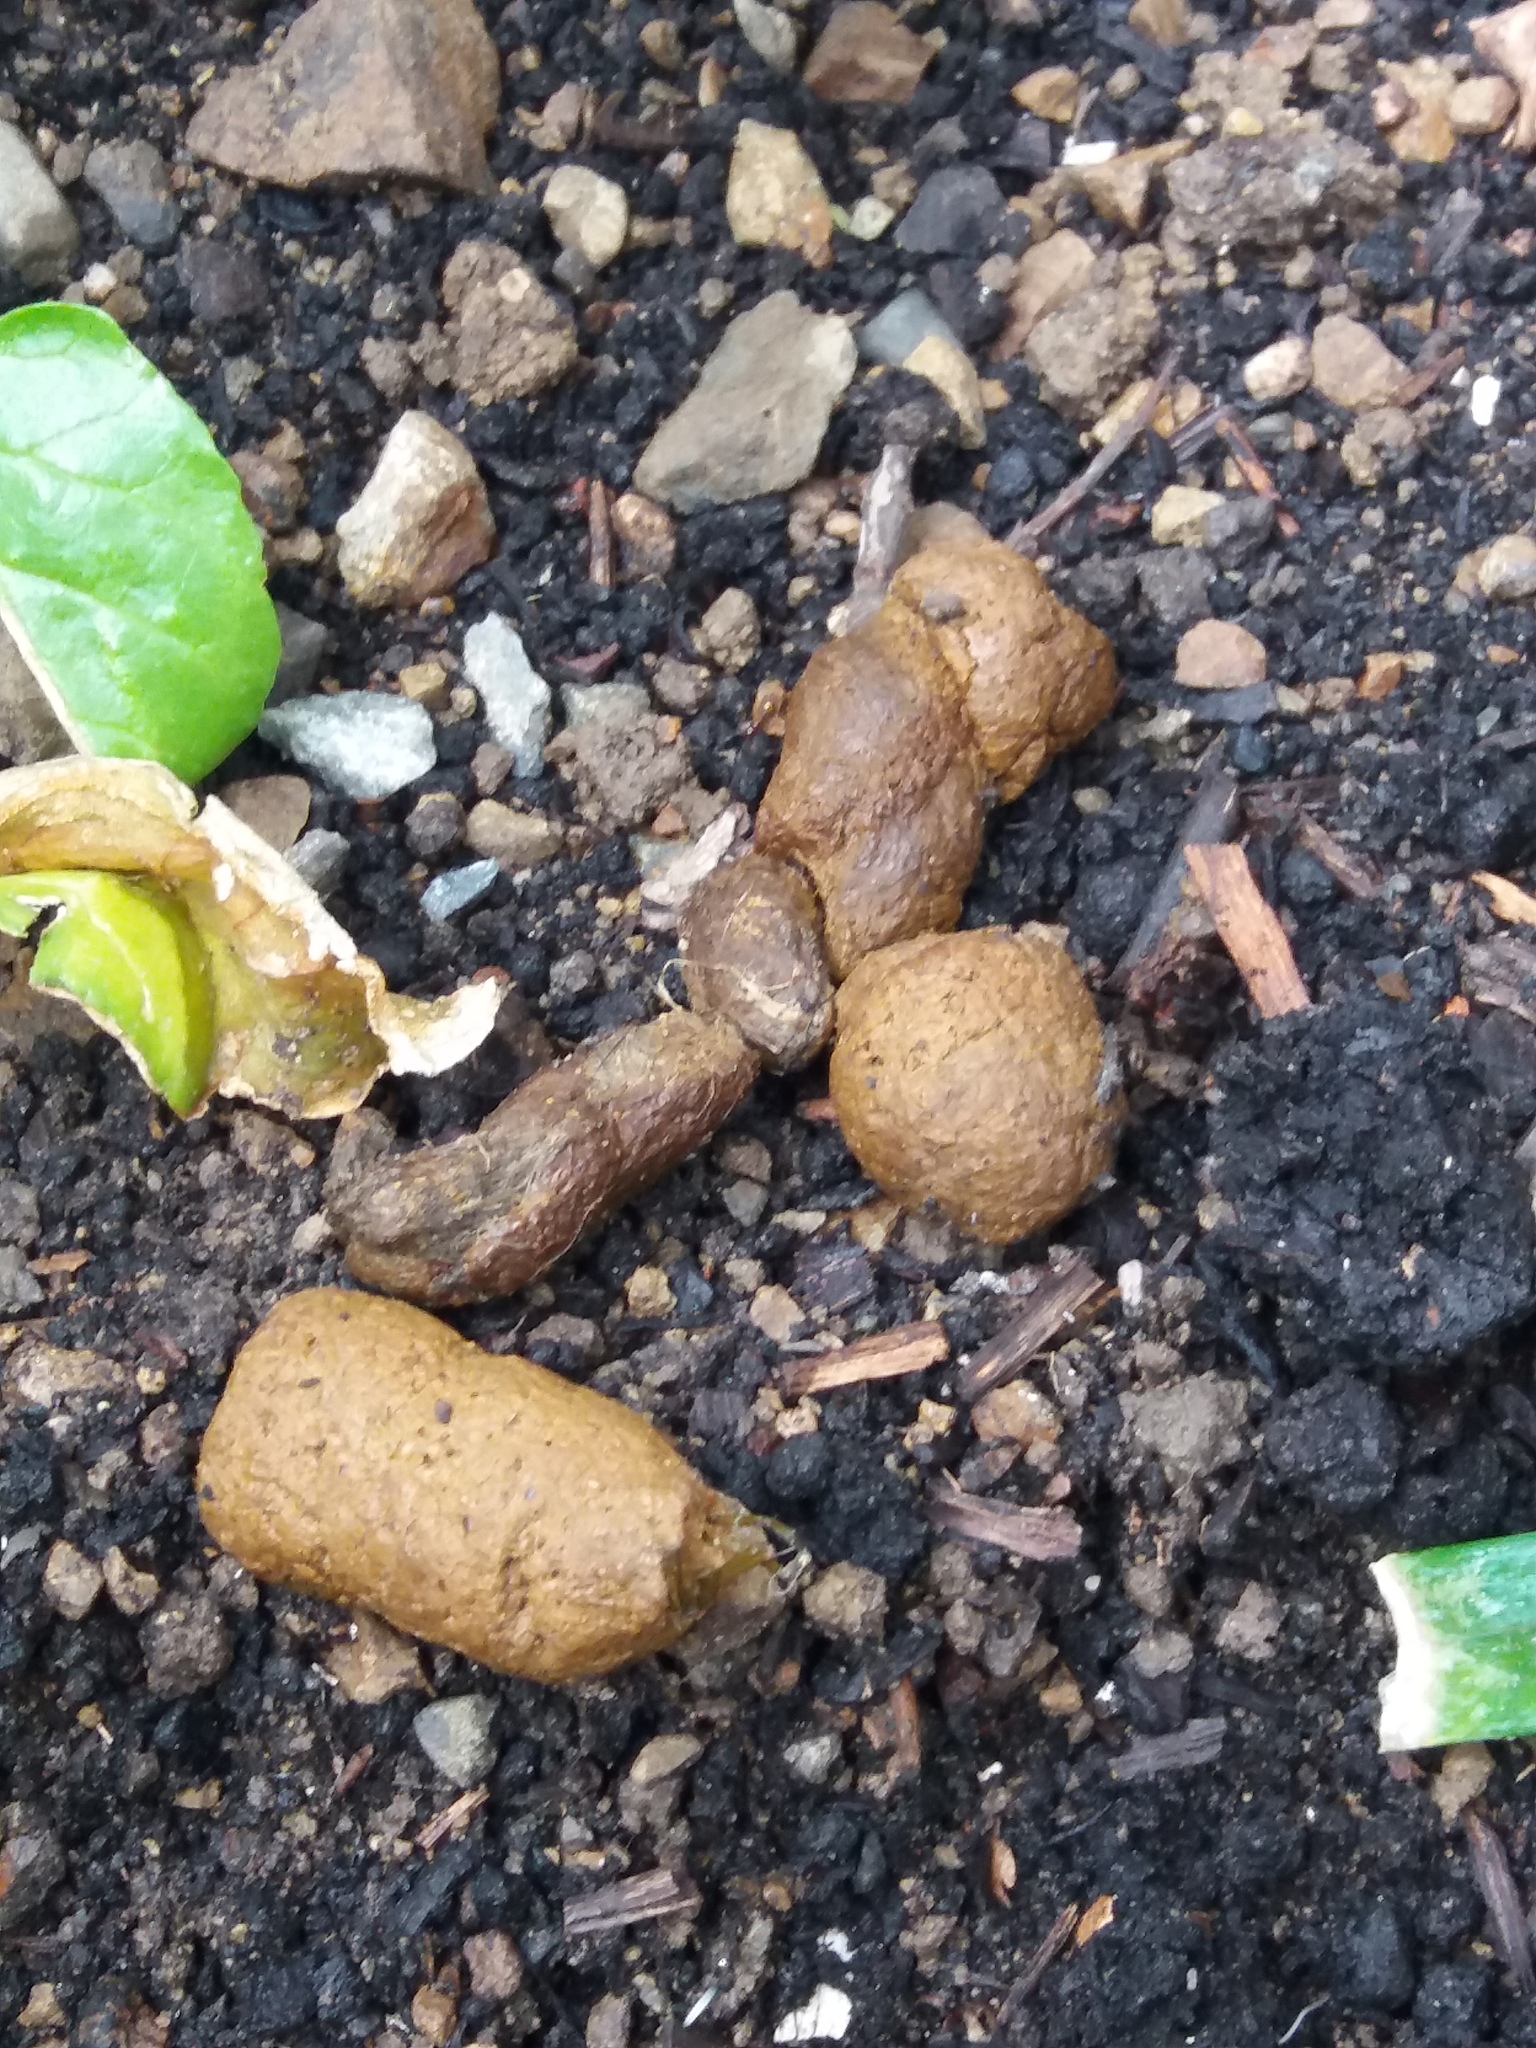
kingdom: Animalia
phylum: Chordata
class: Mammalia
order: Carnivora
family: Felidae
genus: Felis
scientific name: Felis catus
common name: Domestic cat
